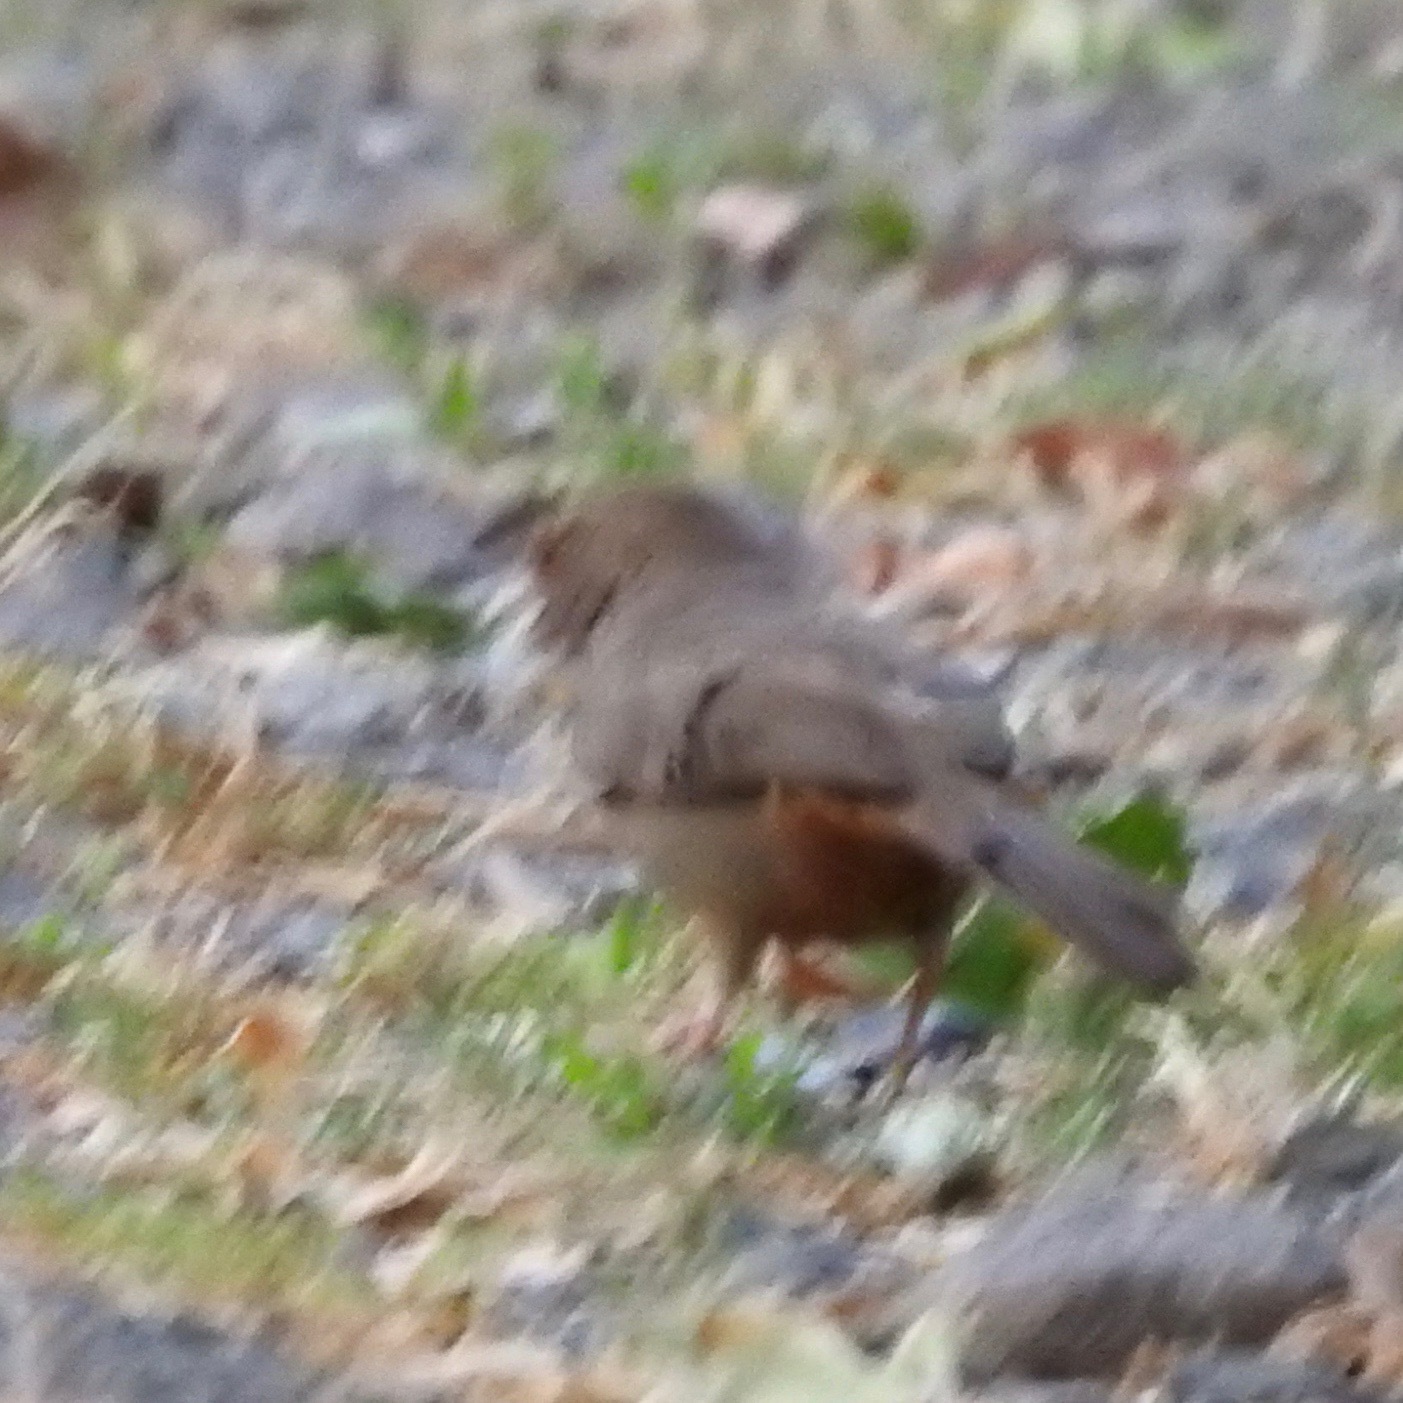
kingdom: Animalia
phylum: Chordata
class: Aves
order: Passeriformes
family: Passerellidae
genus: Melozone
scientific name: Melozone crissalis
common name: California towhee
